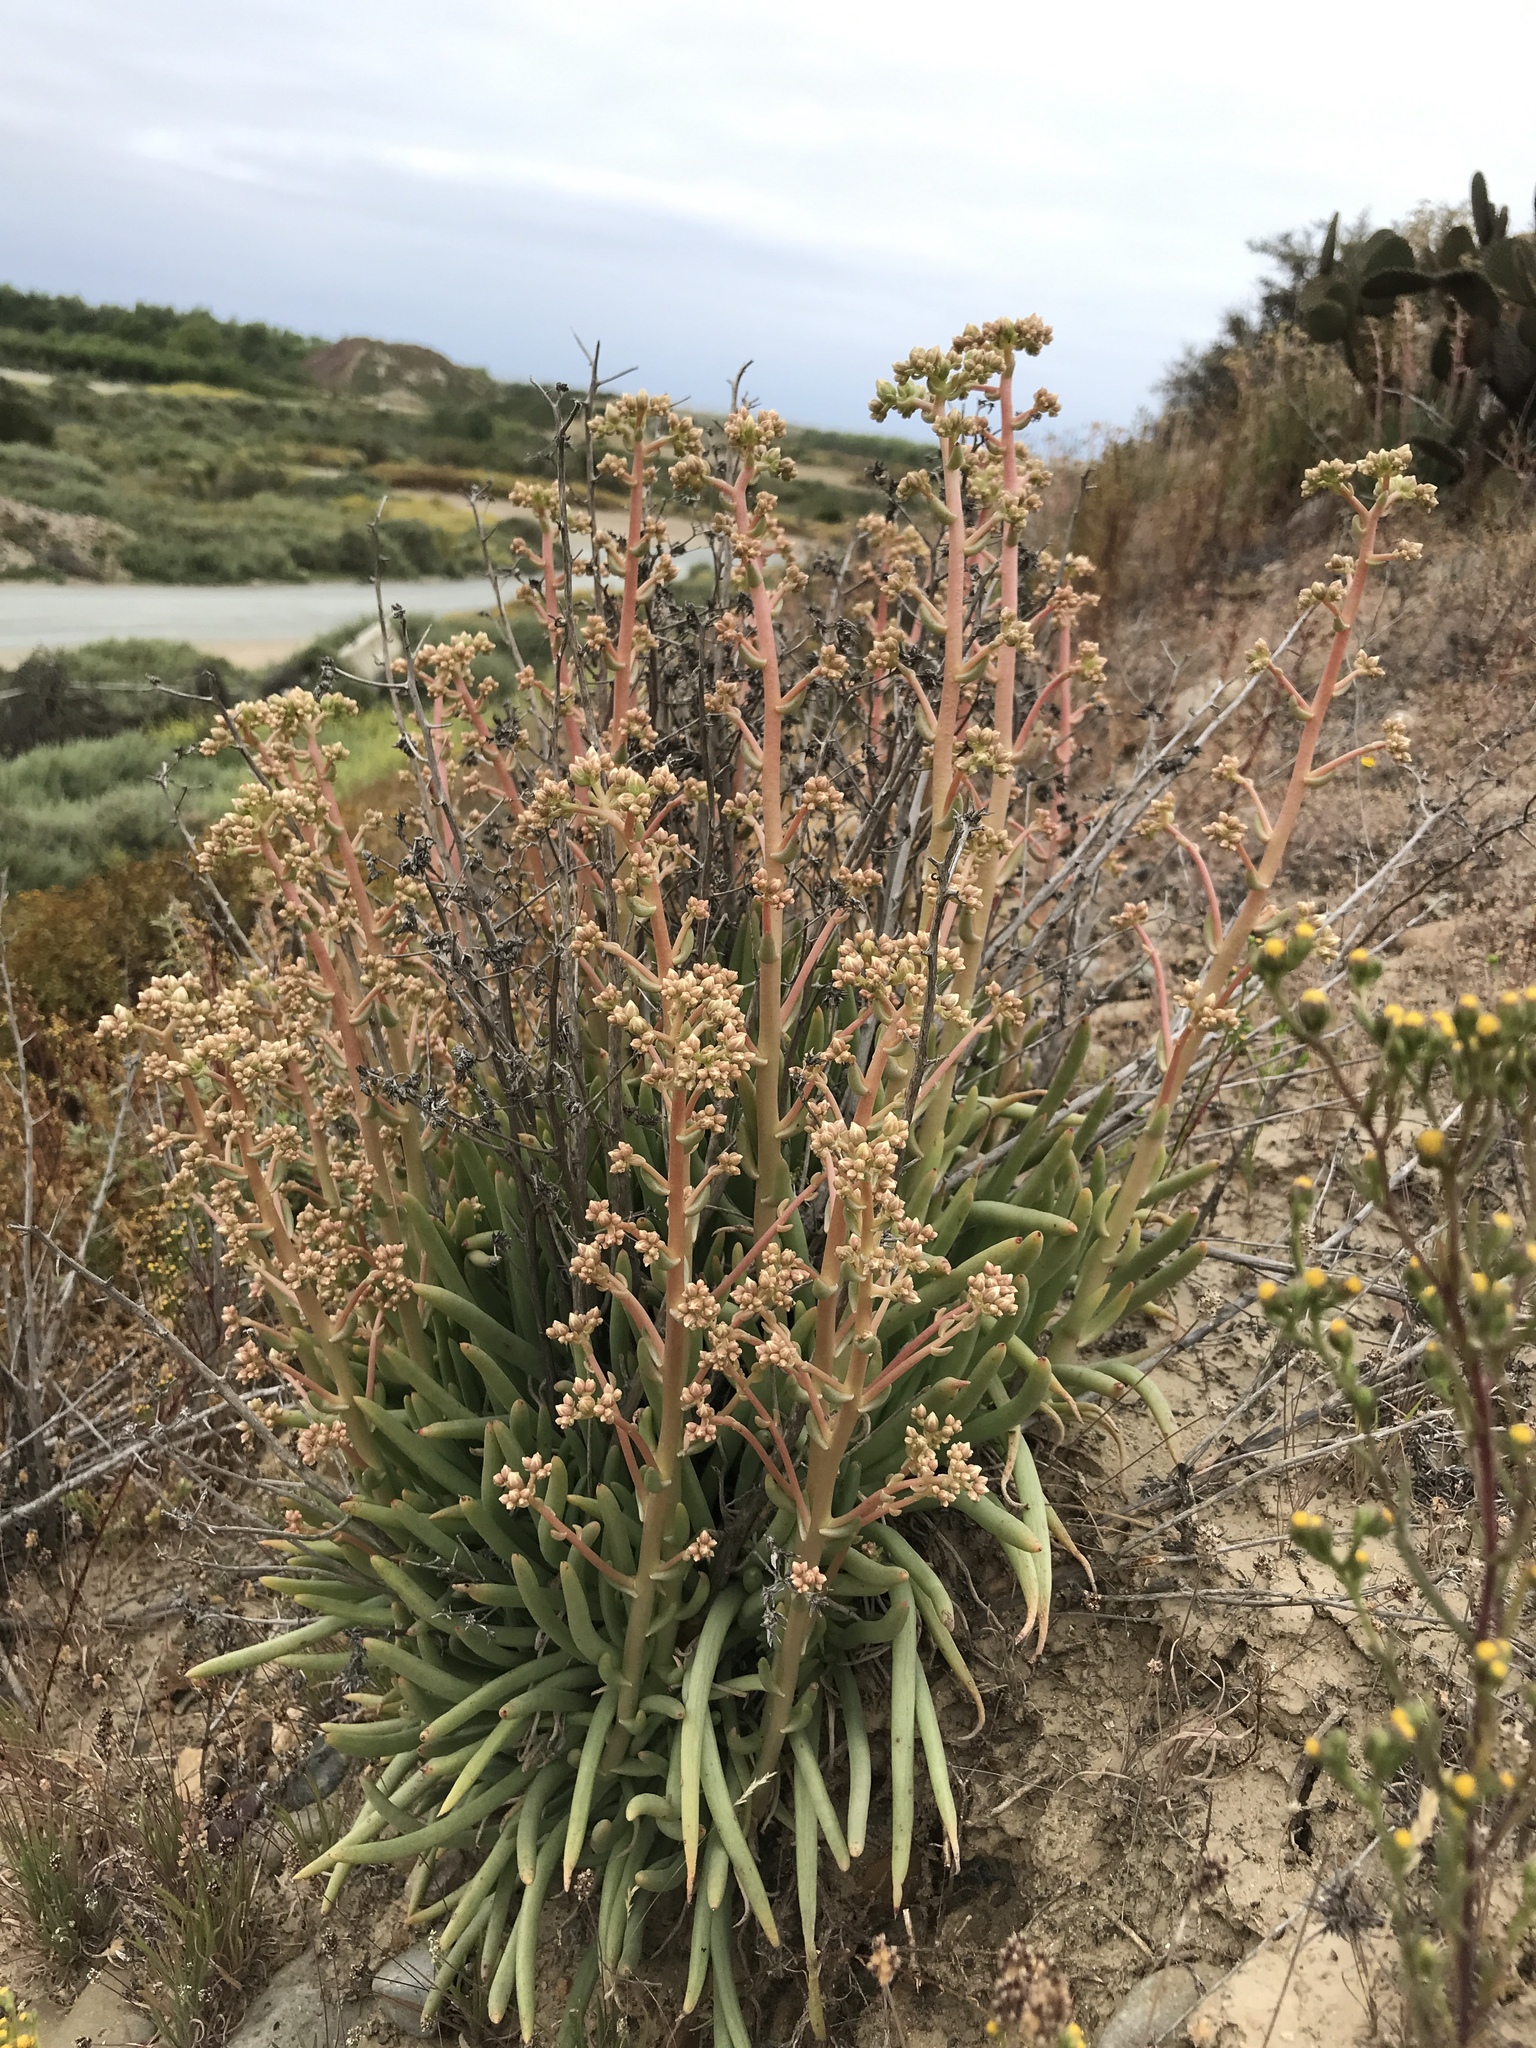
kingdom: Plantae
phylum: Tracheophyta
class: Magnoliopsida
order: Saxifragales
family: Crassulaceae
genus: Dudleya
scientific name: Dudleya edulis
